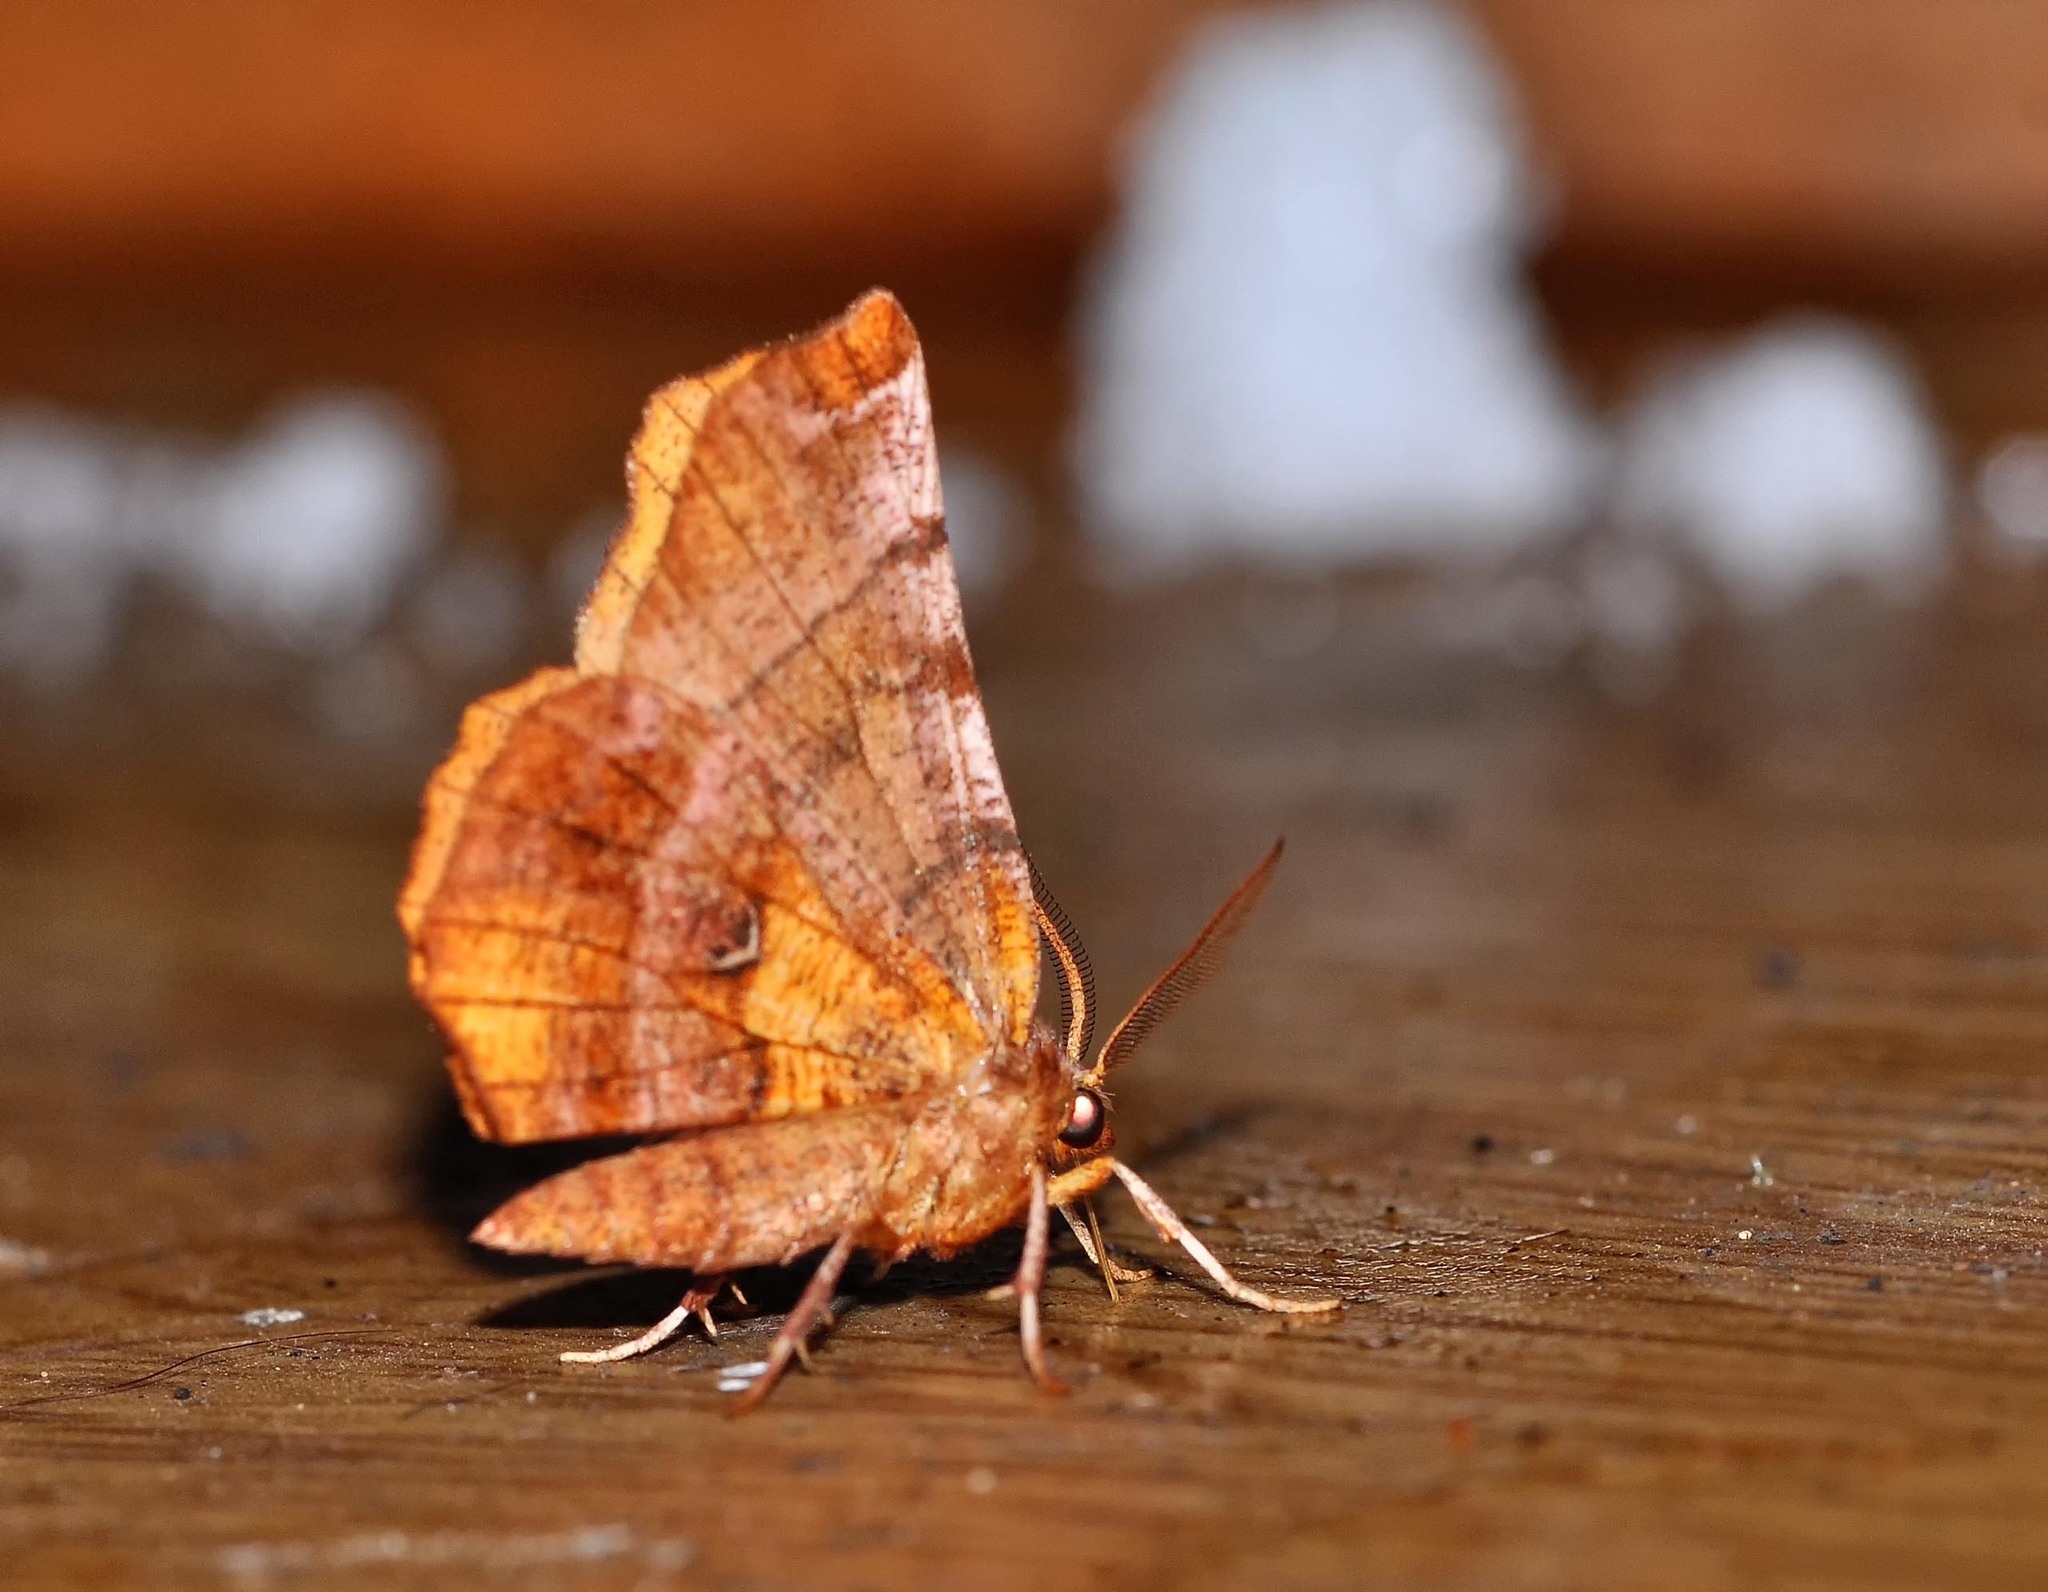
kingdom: Animalia
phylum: Arthropoda
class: Insecta
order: Lepidoptera
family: Geometridae
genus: Selenia
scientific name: Selenia dentaria
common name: Early thorn
